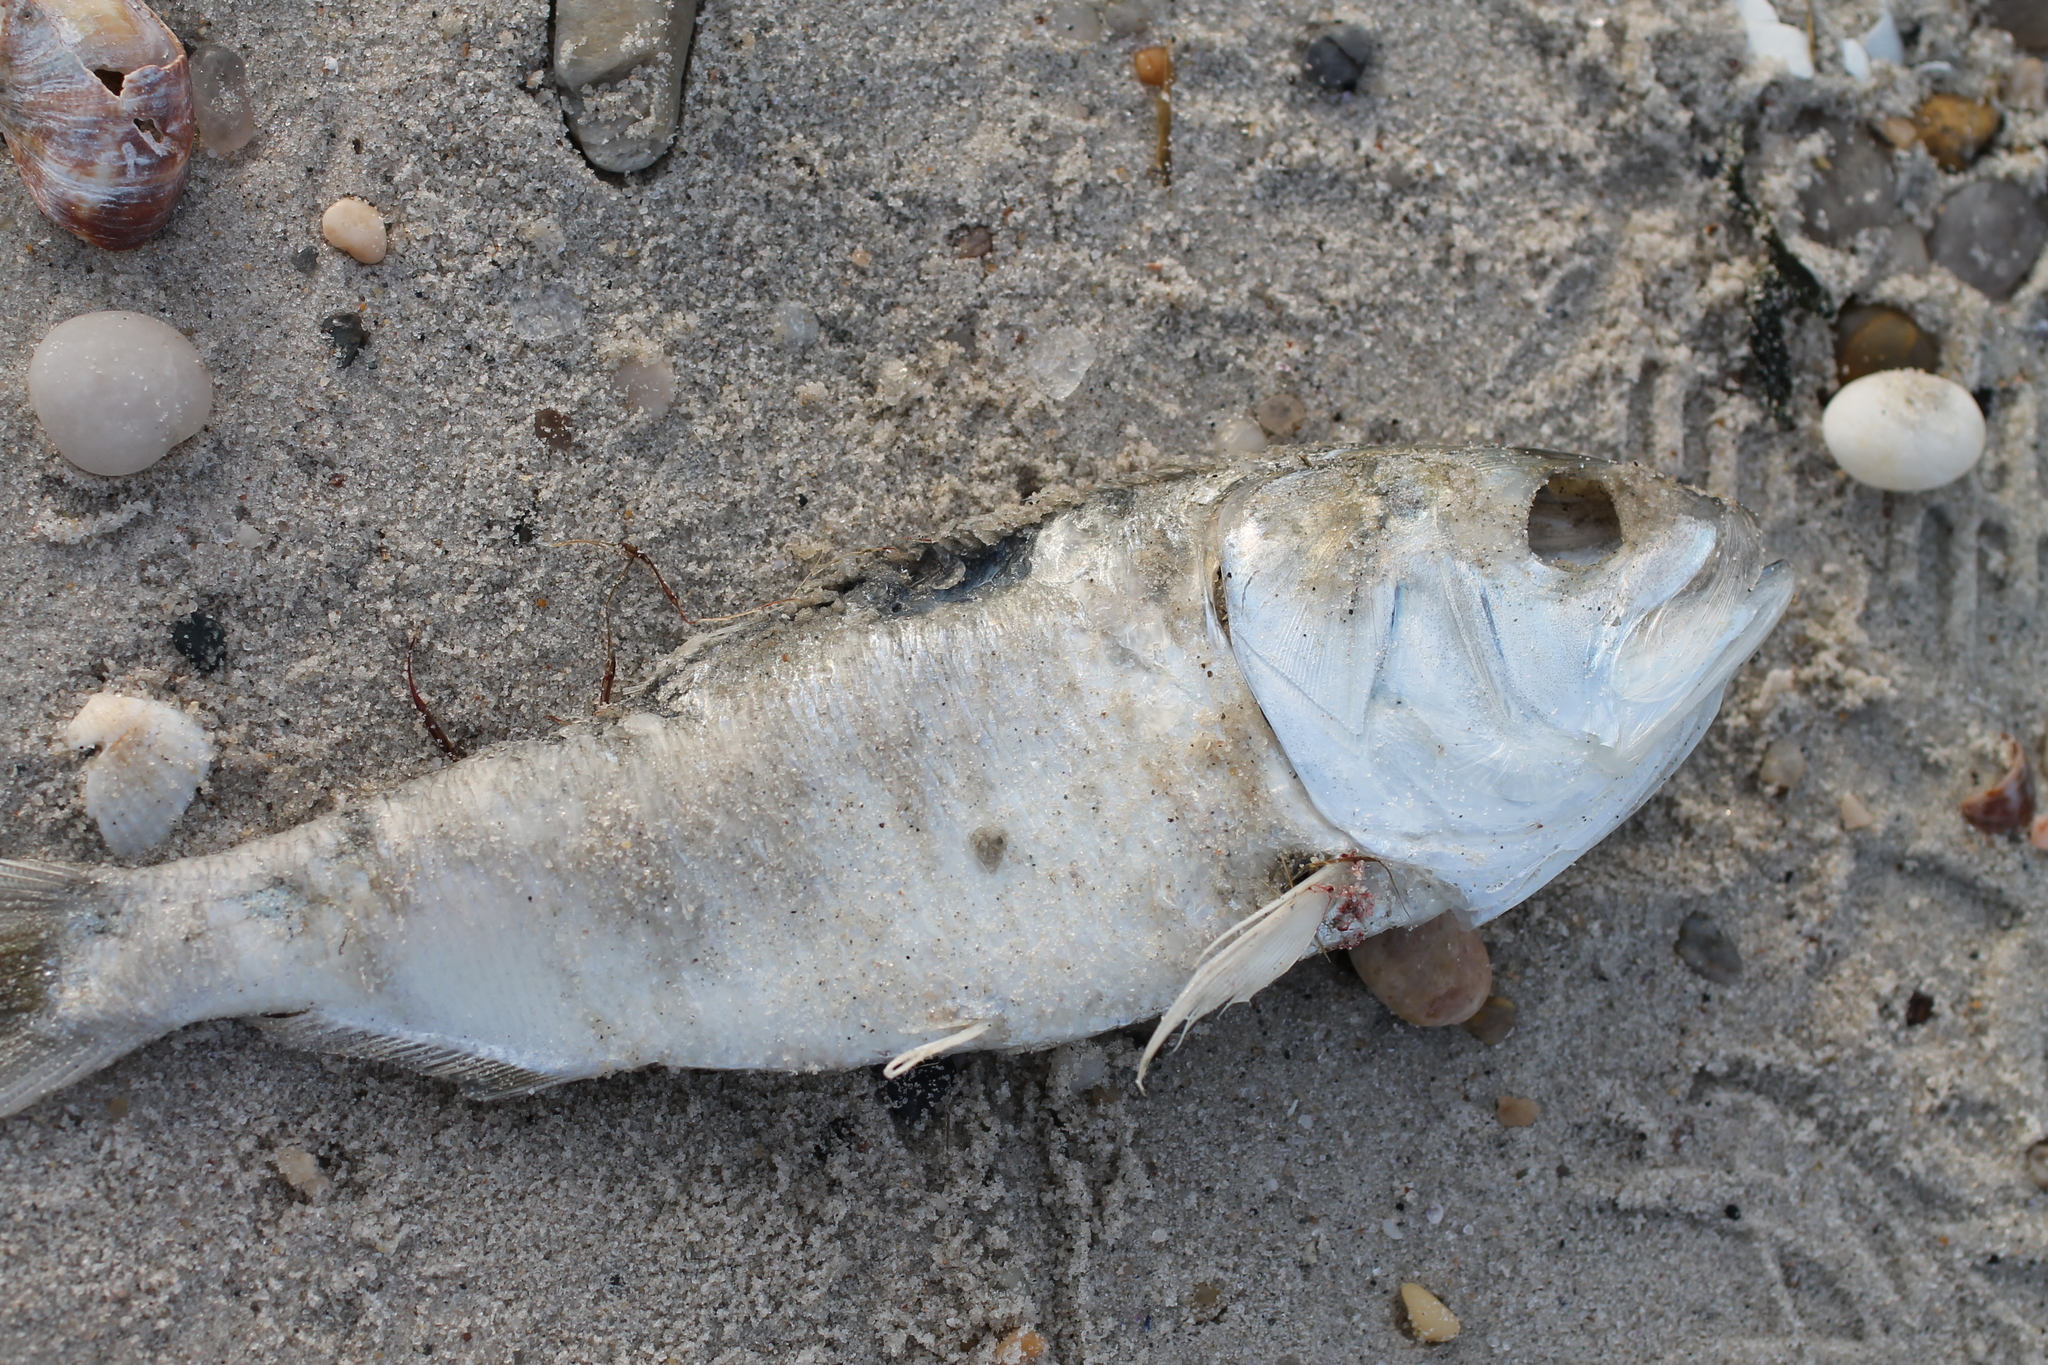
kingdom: Animalia
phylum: Chordata
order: Clupeiformes
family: Clupeidae
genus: Brevoortia
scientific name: Brevoortia tyrannus
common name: Atlantic menhaden
